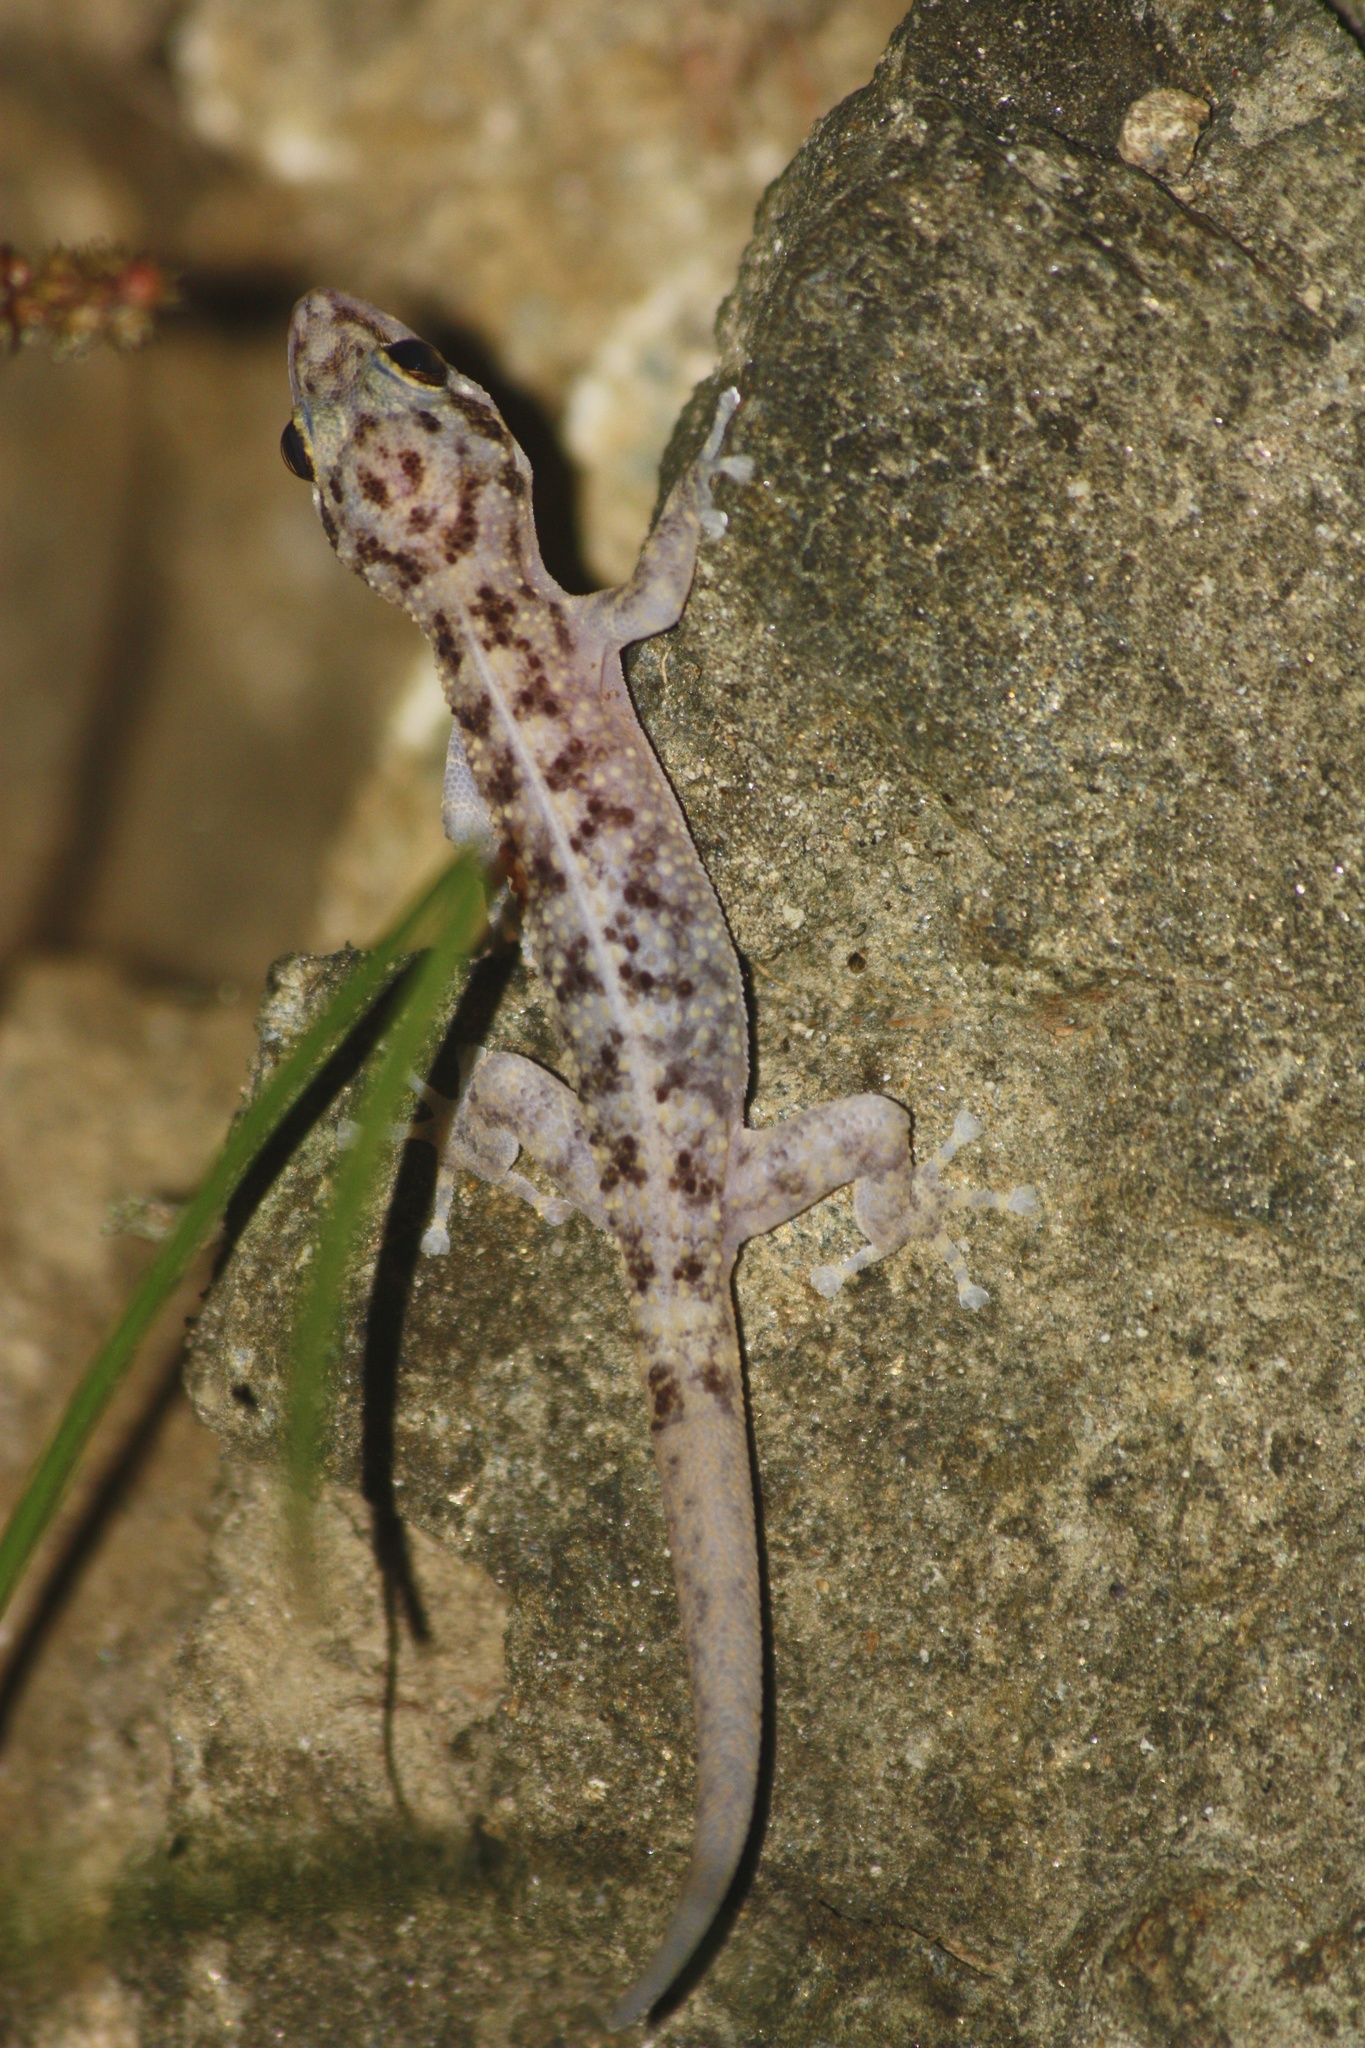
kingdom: Animalia
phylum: Chordata
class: Squamata
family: Phyllodactylidae
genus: Phyllodactylus
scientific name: Phyllodactylus tuberculosus
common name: Yellowbelly  gecko
